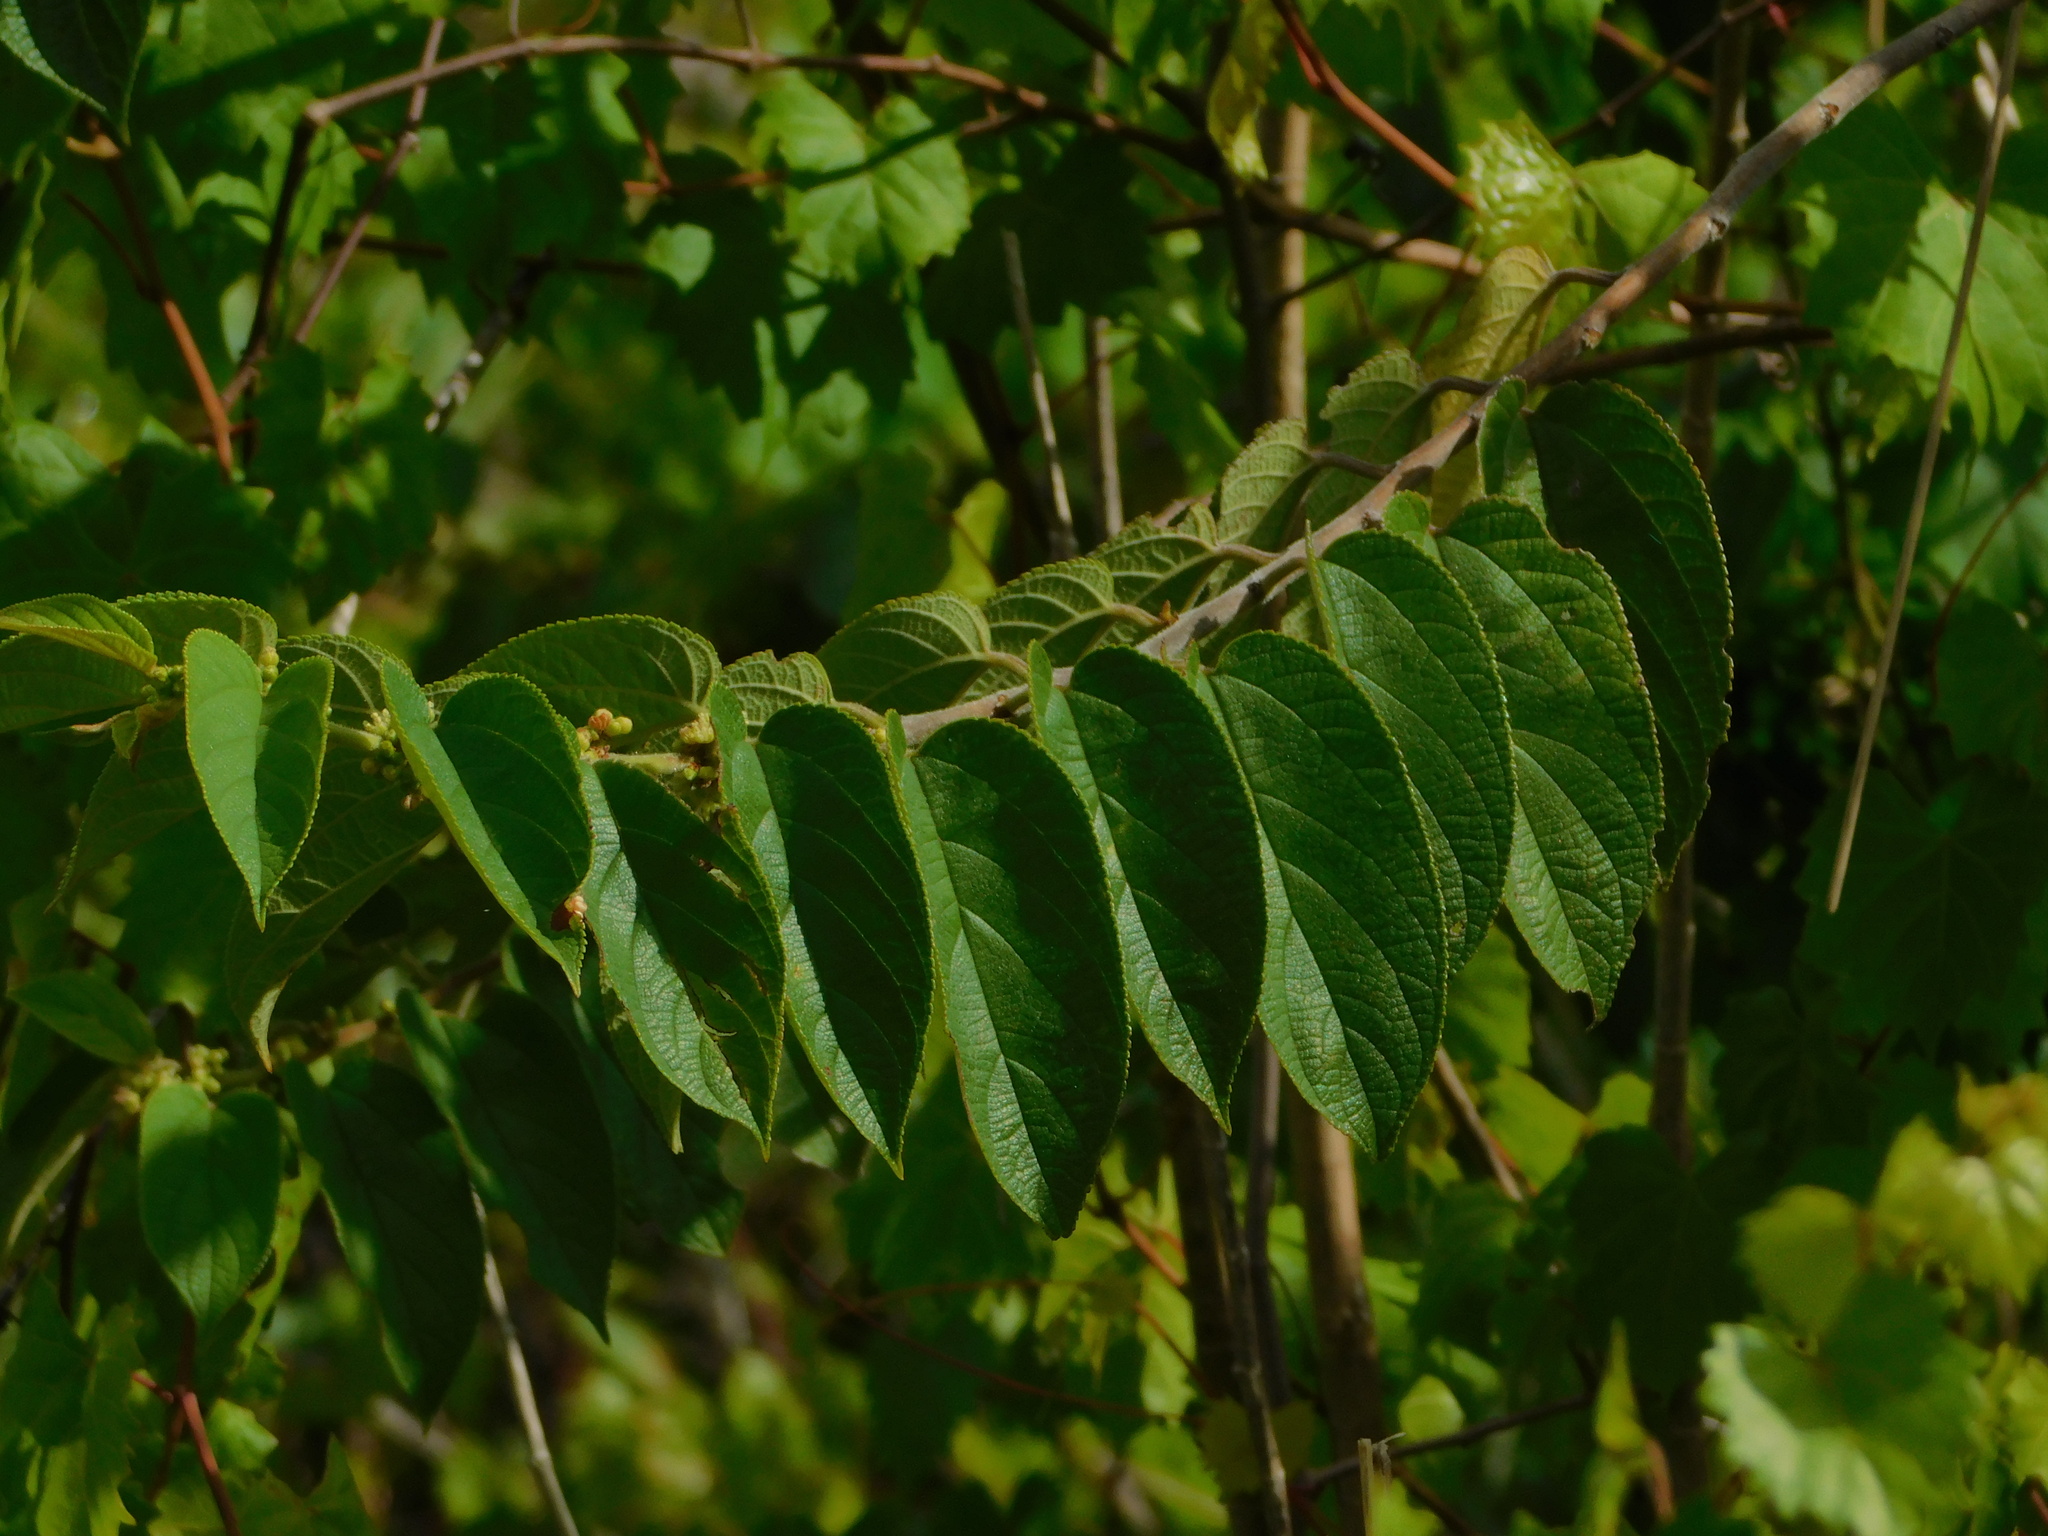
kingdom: Plantae
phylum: Tracheophyta
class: Magnoliopsida
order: Rosales
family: Cannabaceae
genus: Trema
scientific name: Trema micranthum
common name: Jamaican nettletree
